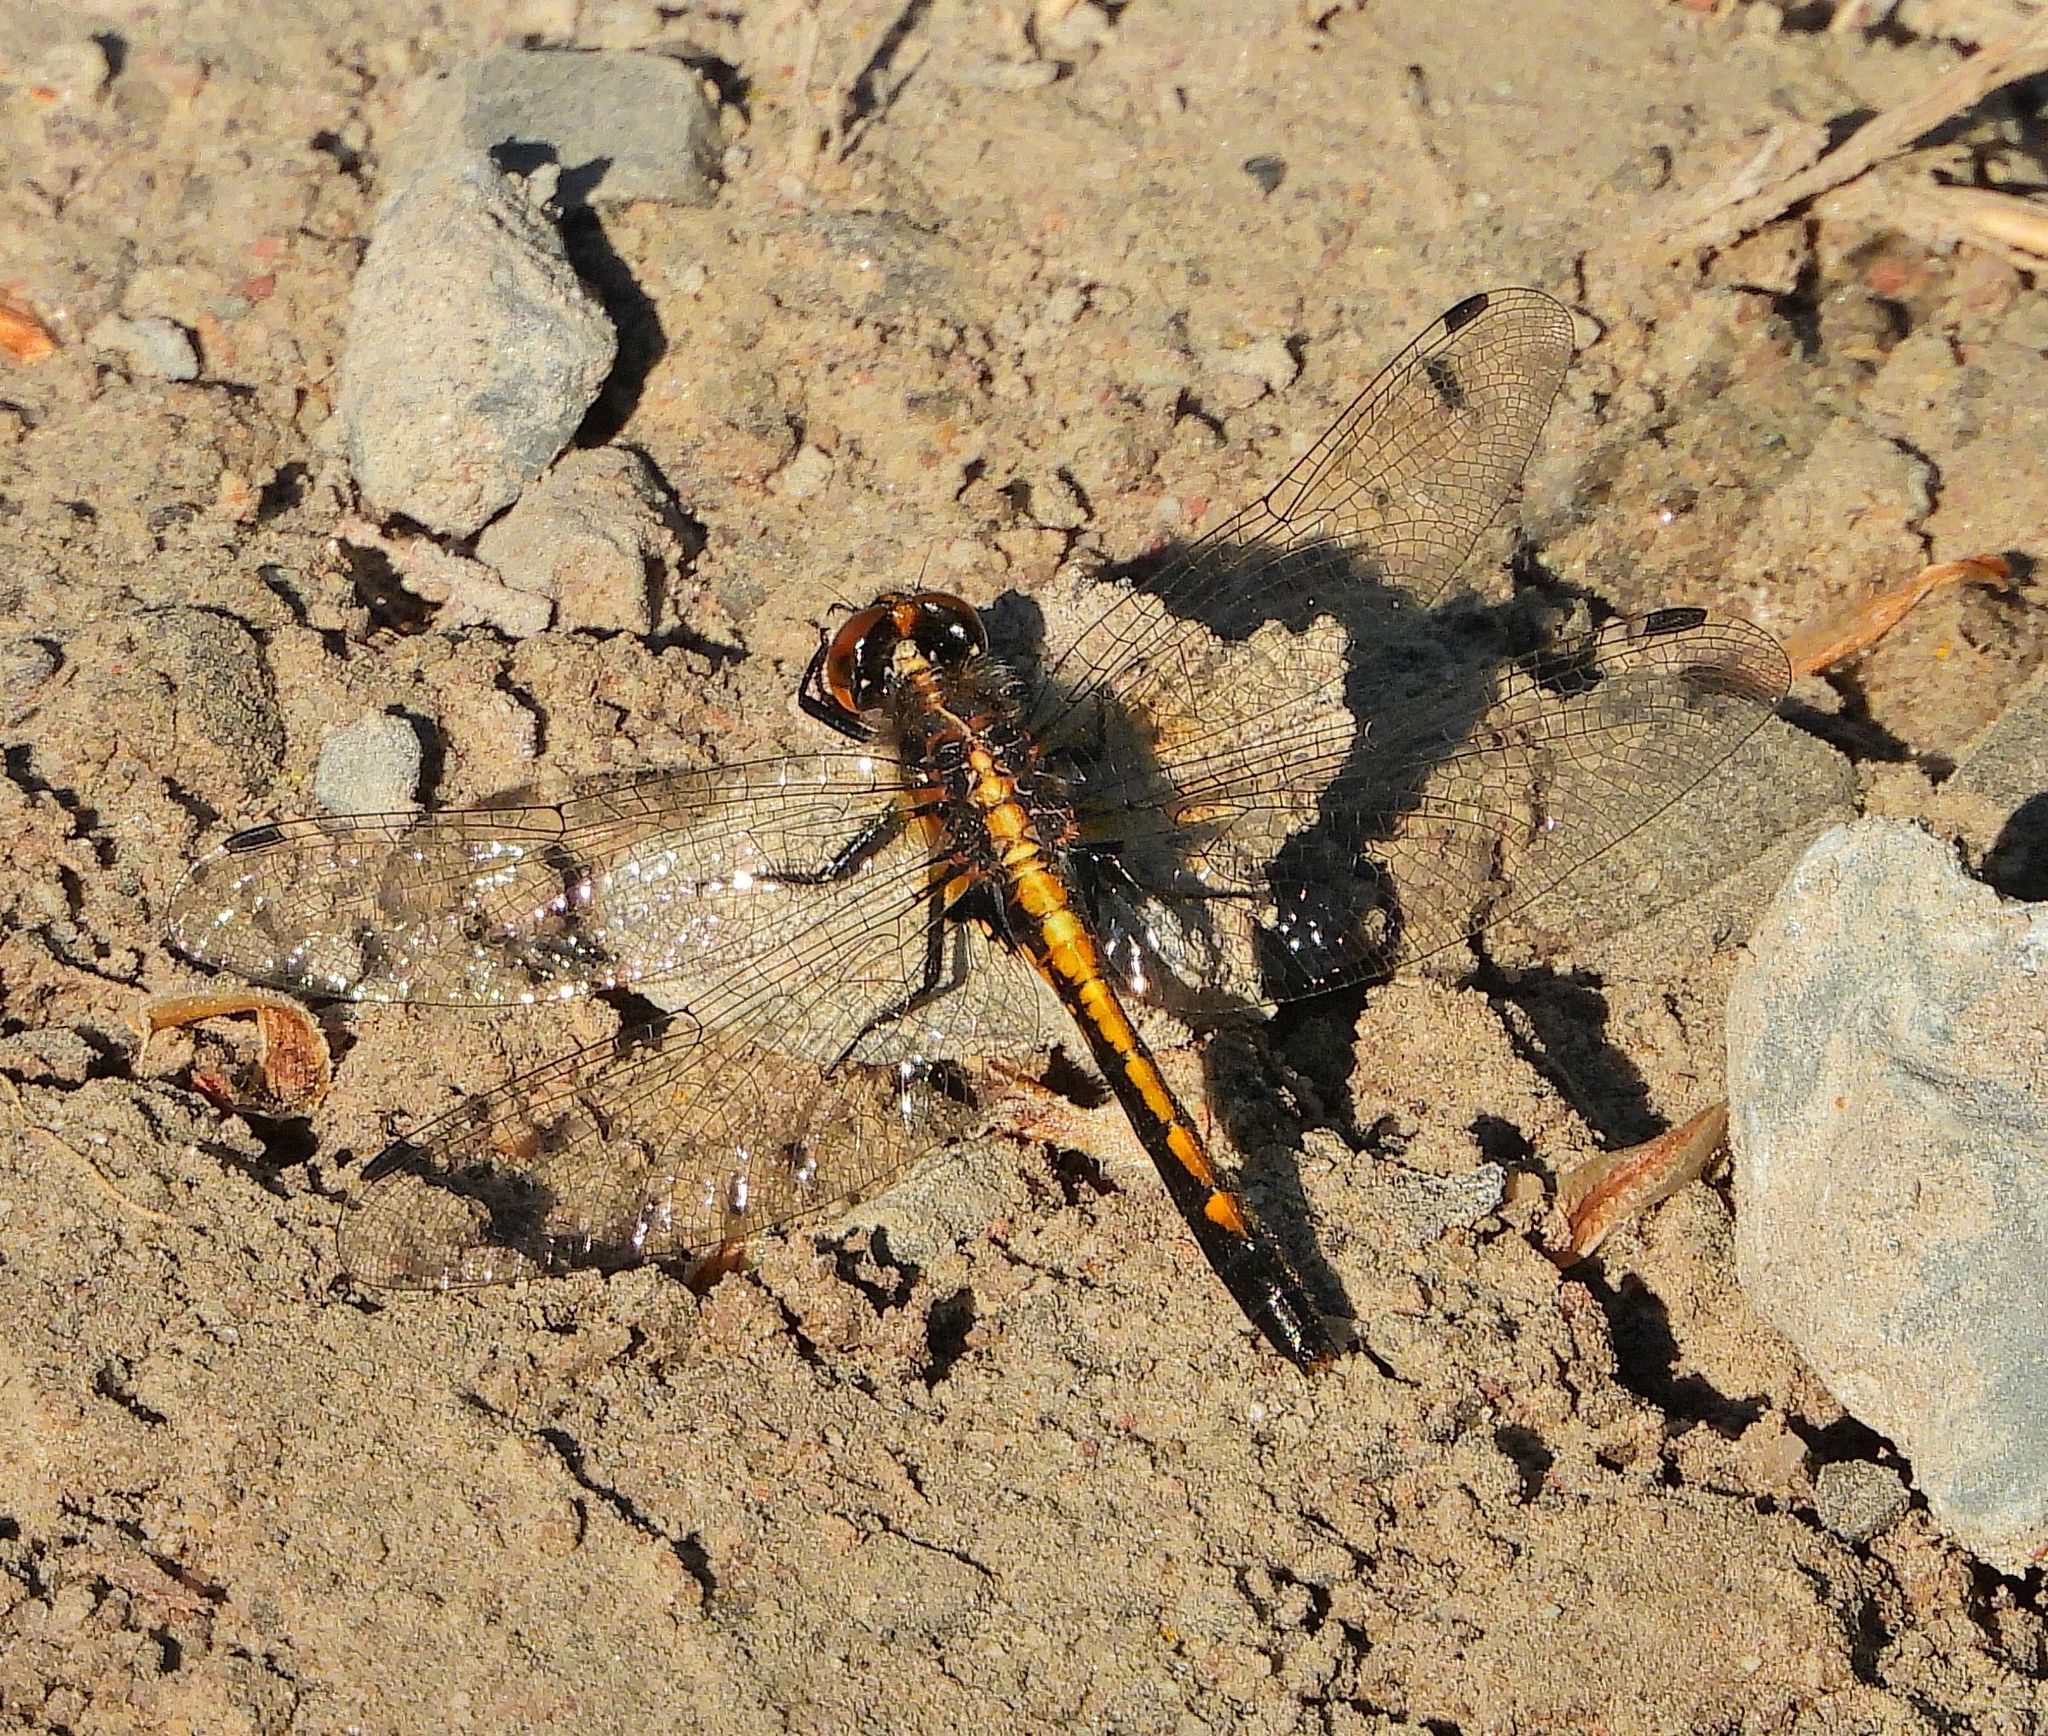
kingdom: Animalia
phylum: Arthropoda
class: Insecta
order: Odonata
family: Libellulidae
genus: Leucorrhinia
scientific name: Leucorrhinia intacta
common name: Dot-tailed whiteface
